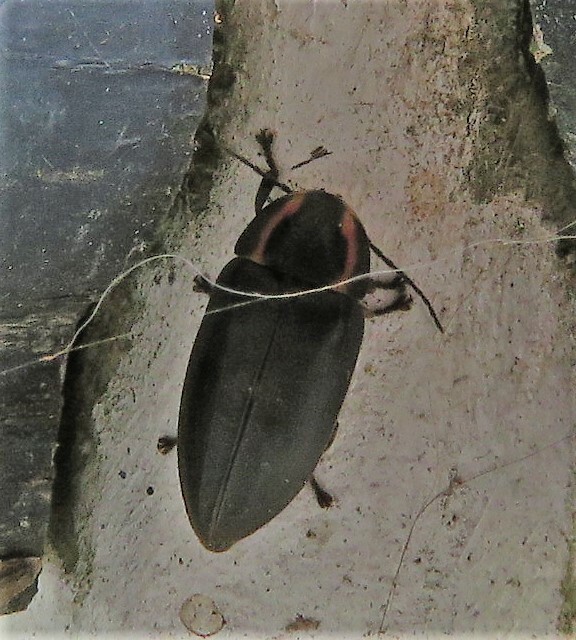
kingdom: Animalia
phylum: Arthropoda
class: Insecta
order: Coleoptera
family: Lampyridae
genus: Photinus
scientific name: Photinus corrusca
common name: Winter firefly
